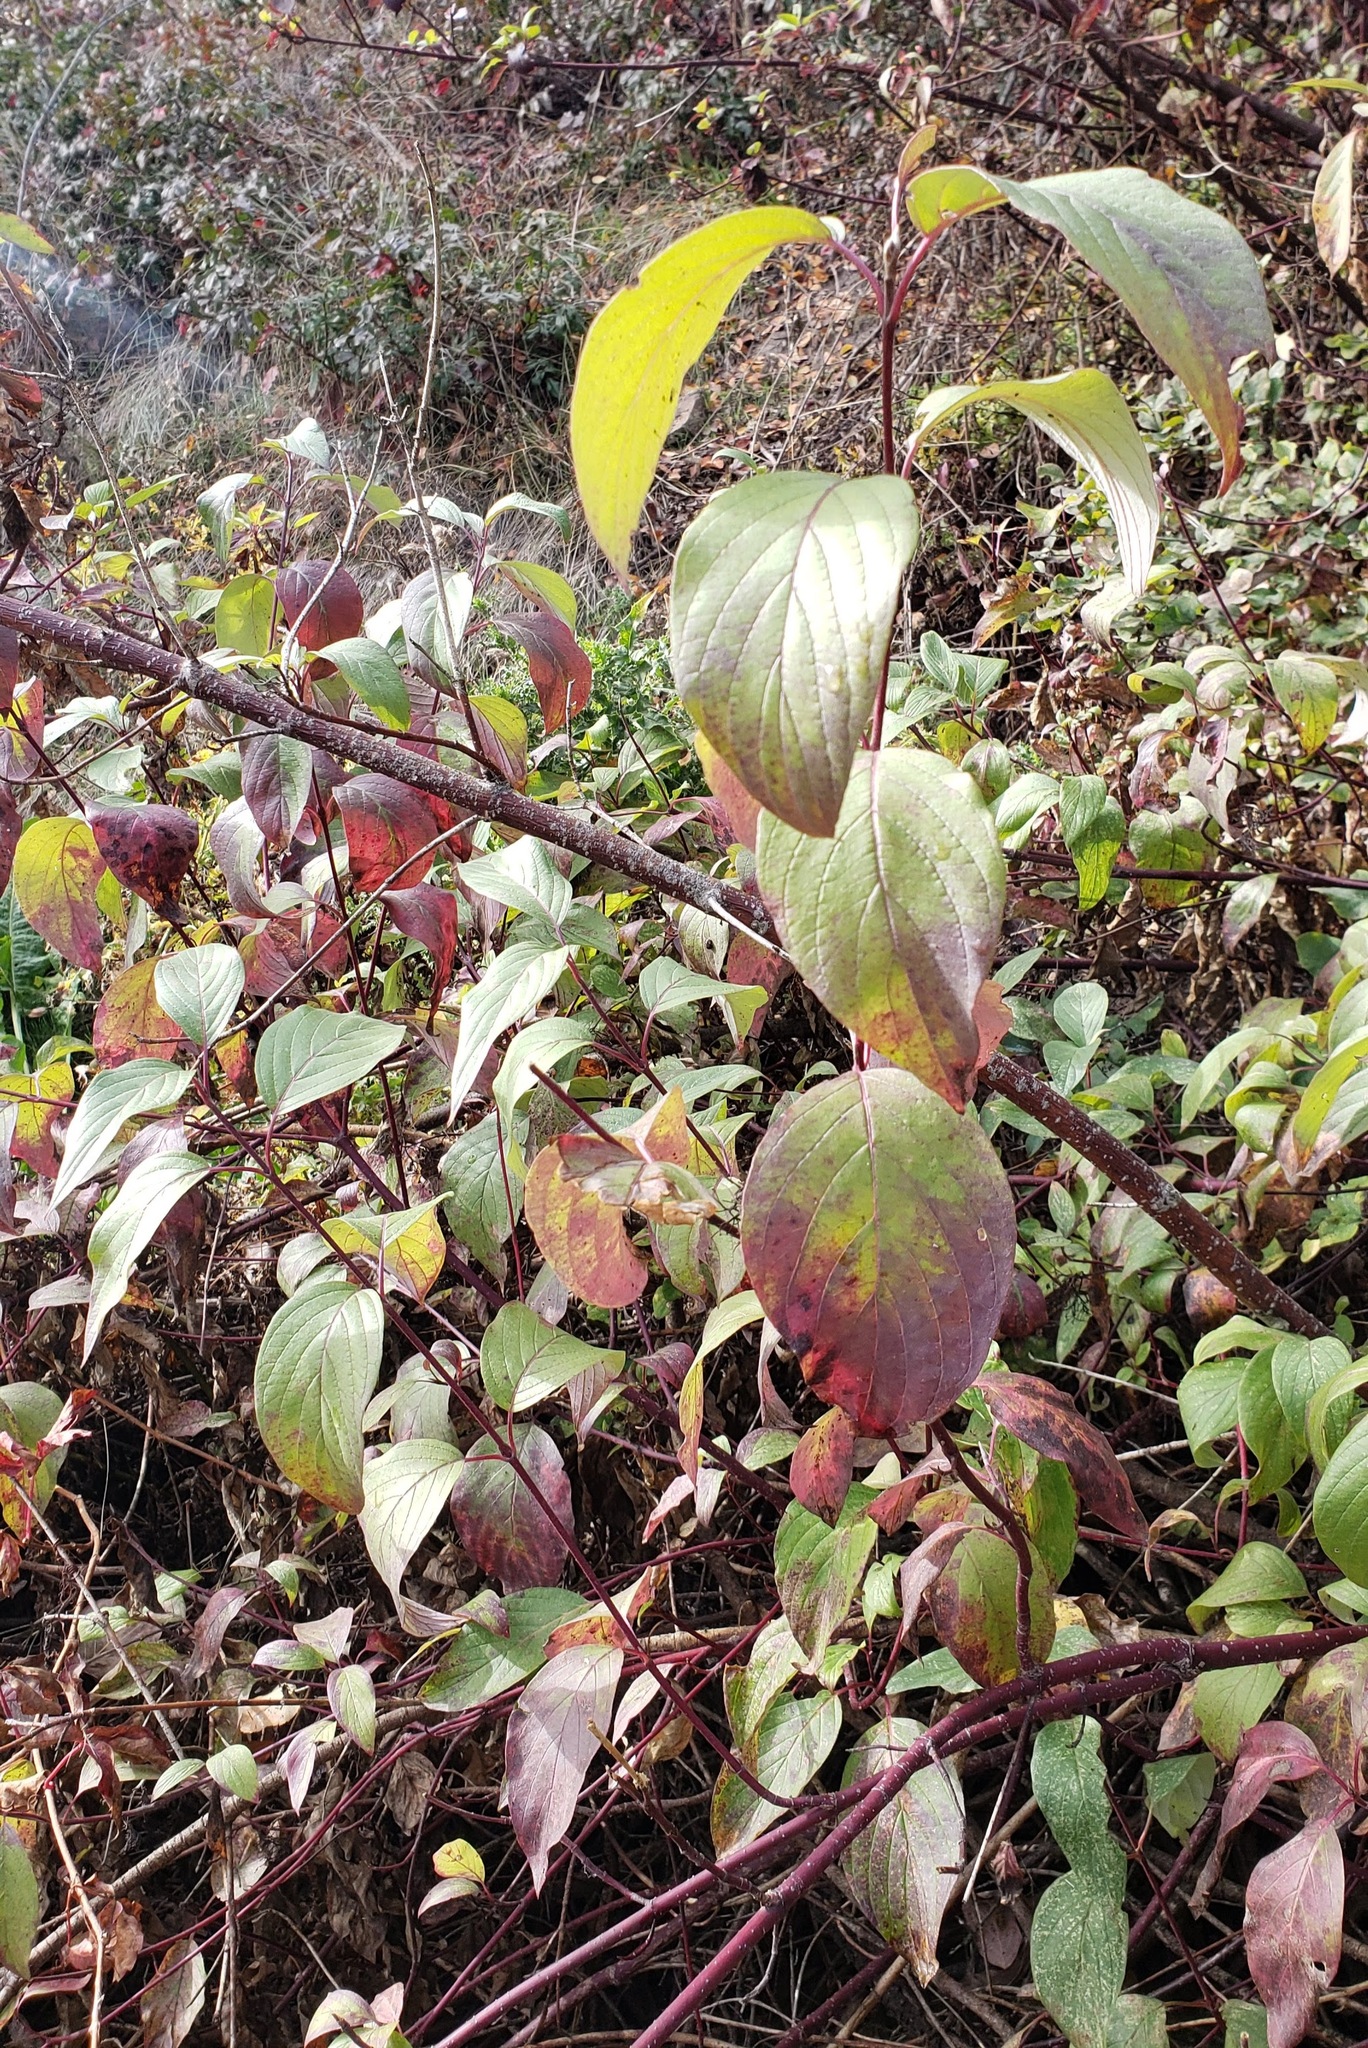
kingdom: Plantae
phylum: Tracheophyta
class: Magnoliopsida
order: Cornales
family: Cornaceae
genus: Cornus
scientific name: Cornus sericea
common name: Red-osier dogwood
